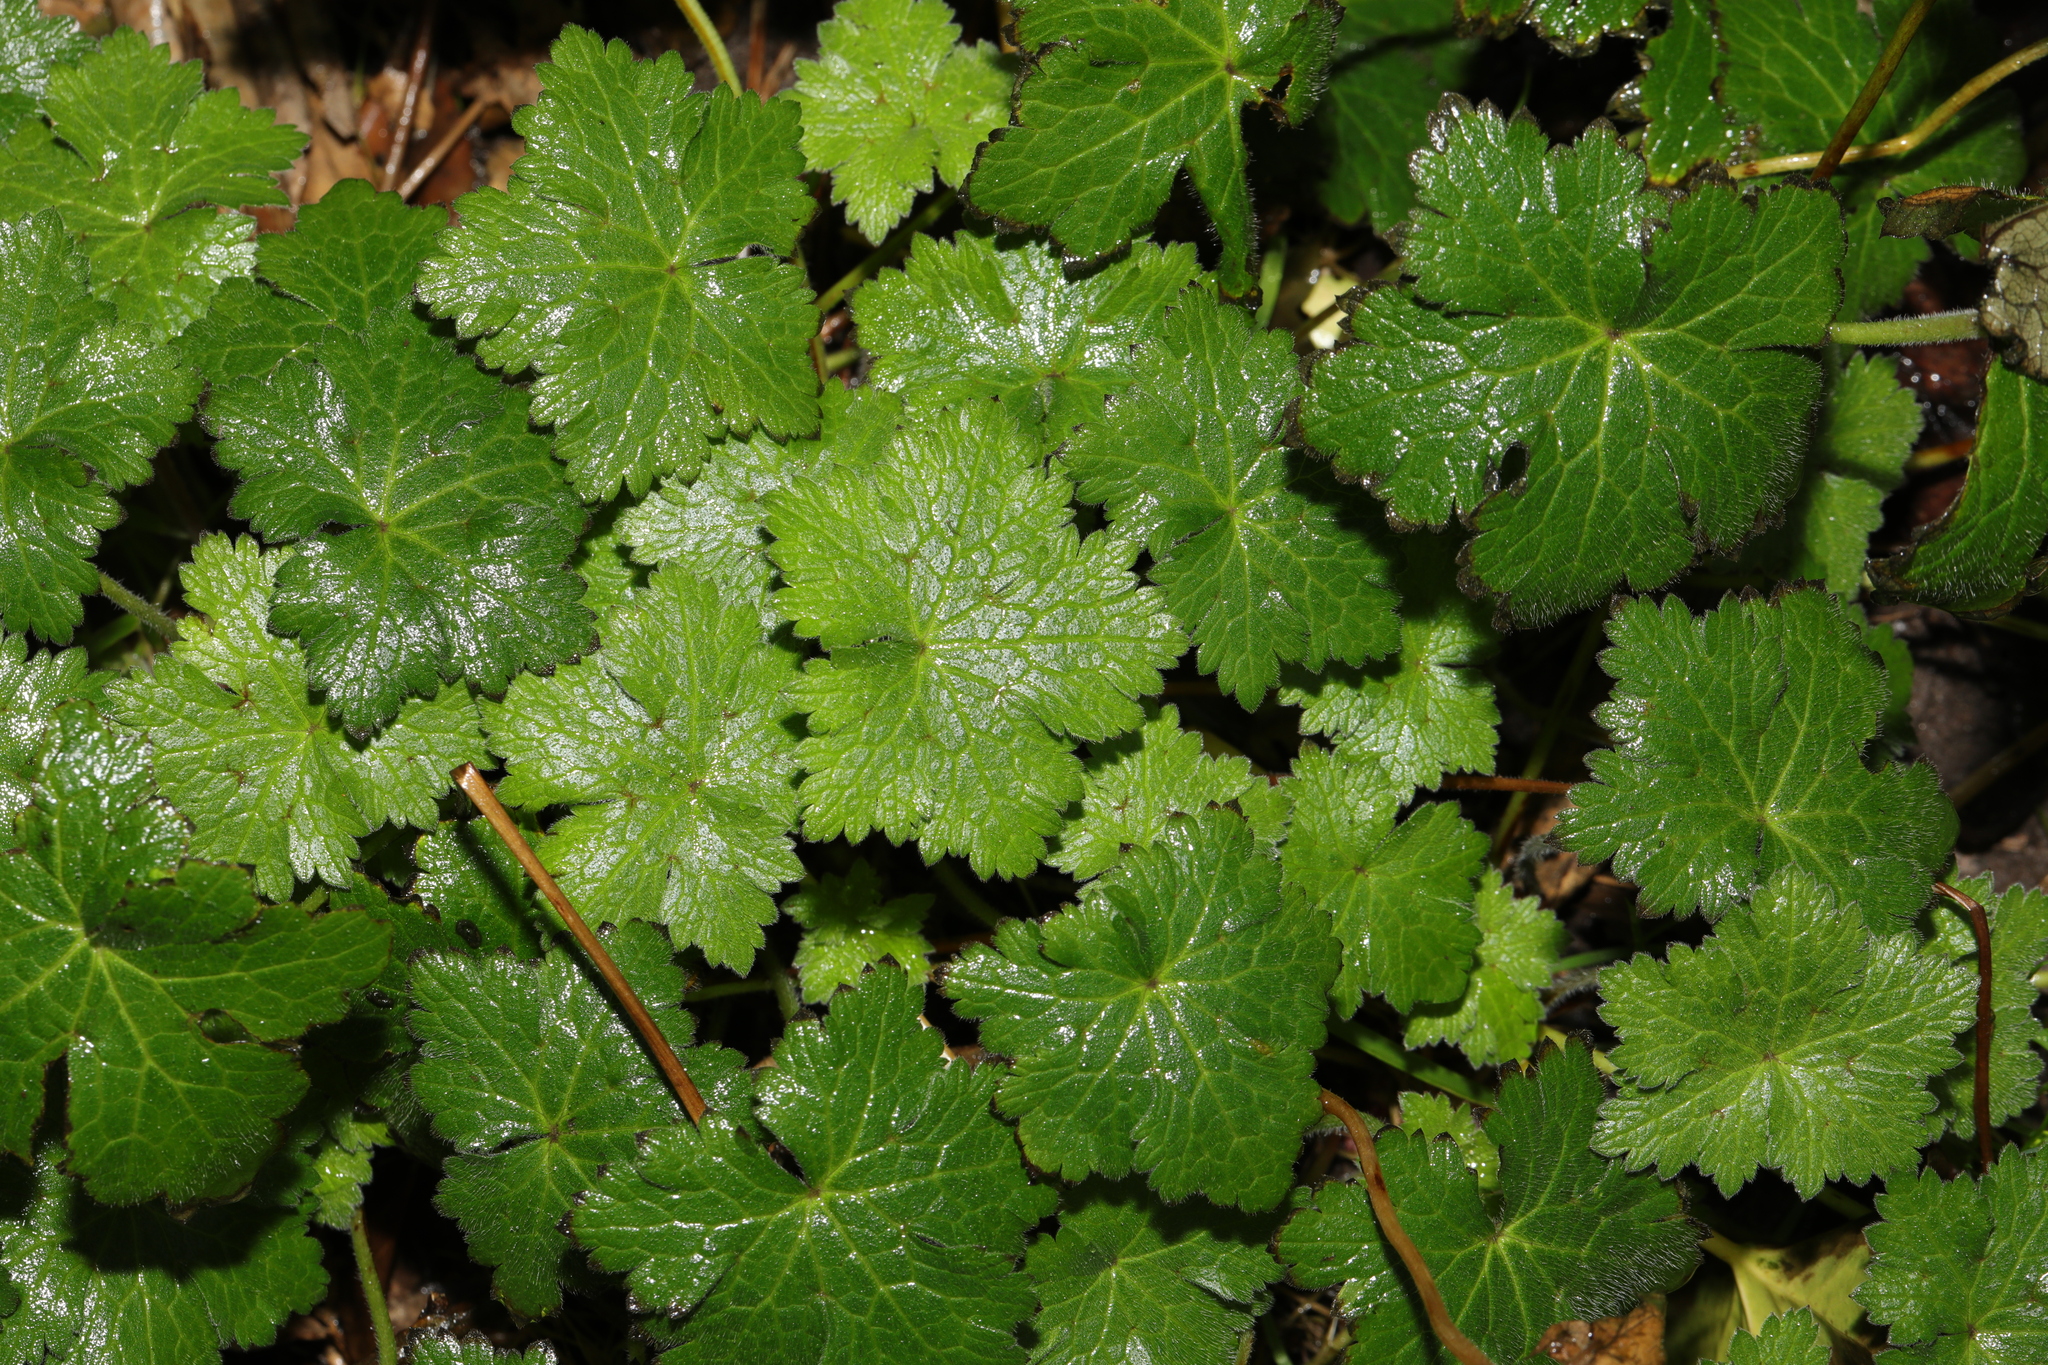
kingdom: Plantae
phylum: Tracheophyta
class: Magnoliopsida
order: Geraniales
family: Geraniaceae
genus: Geranium
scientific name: Geranium pyrenaicum
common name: Hedgerow crane's-bill
